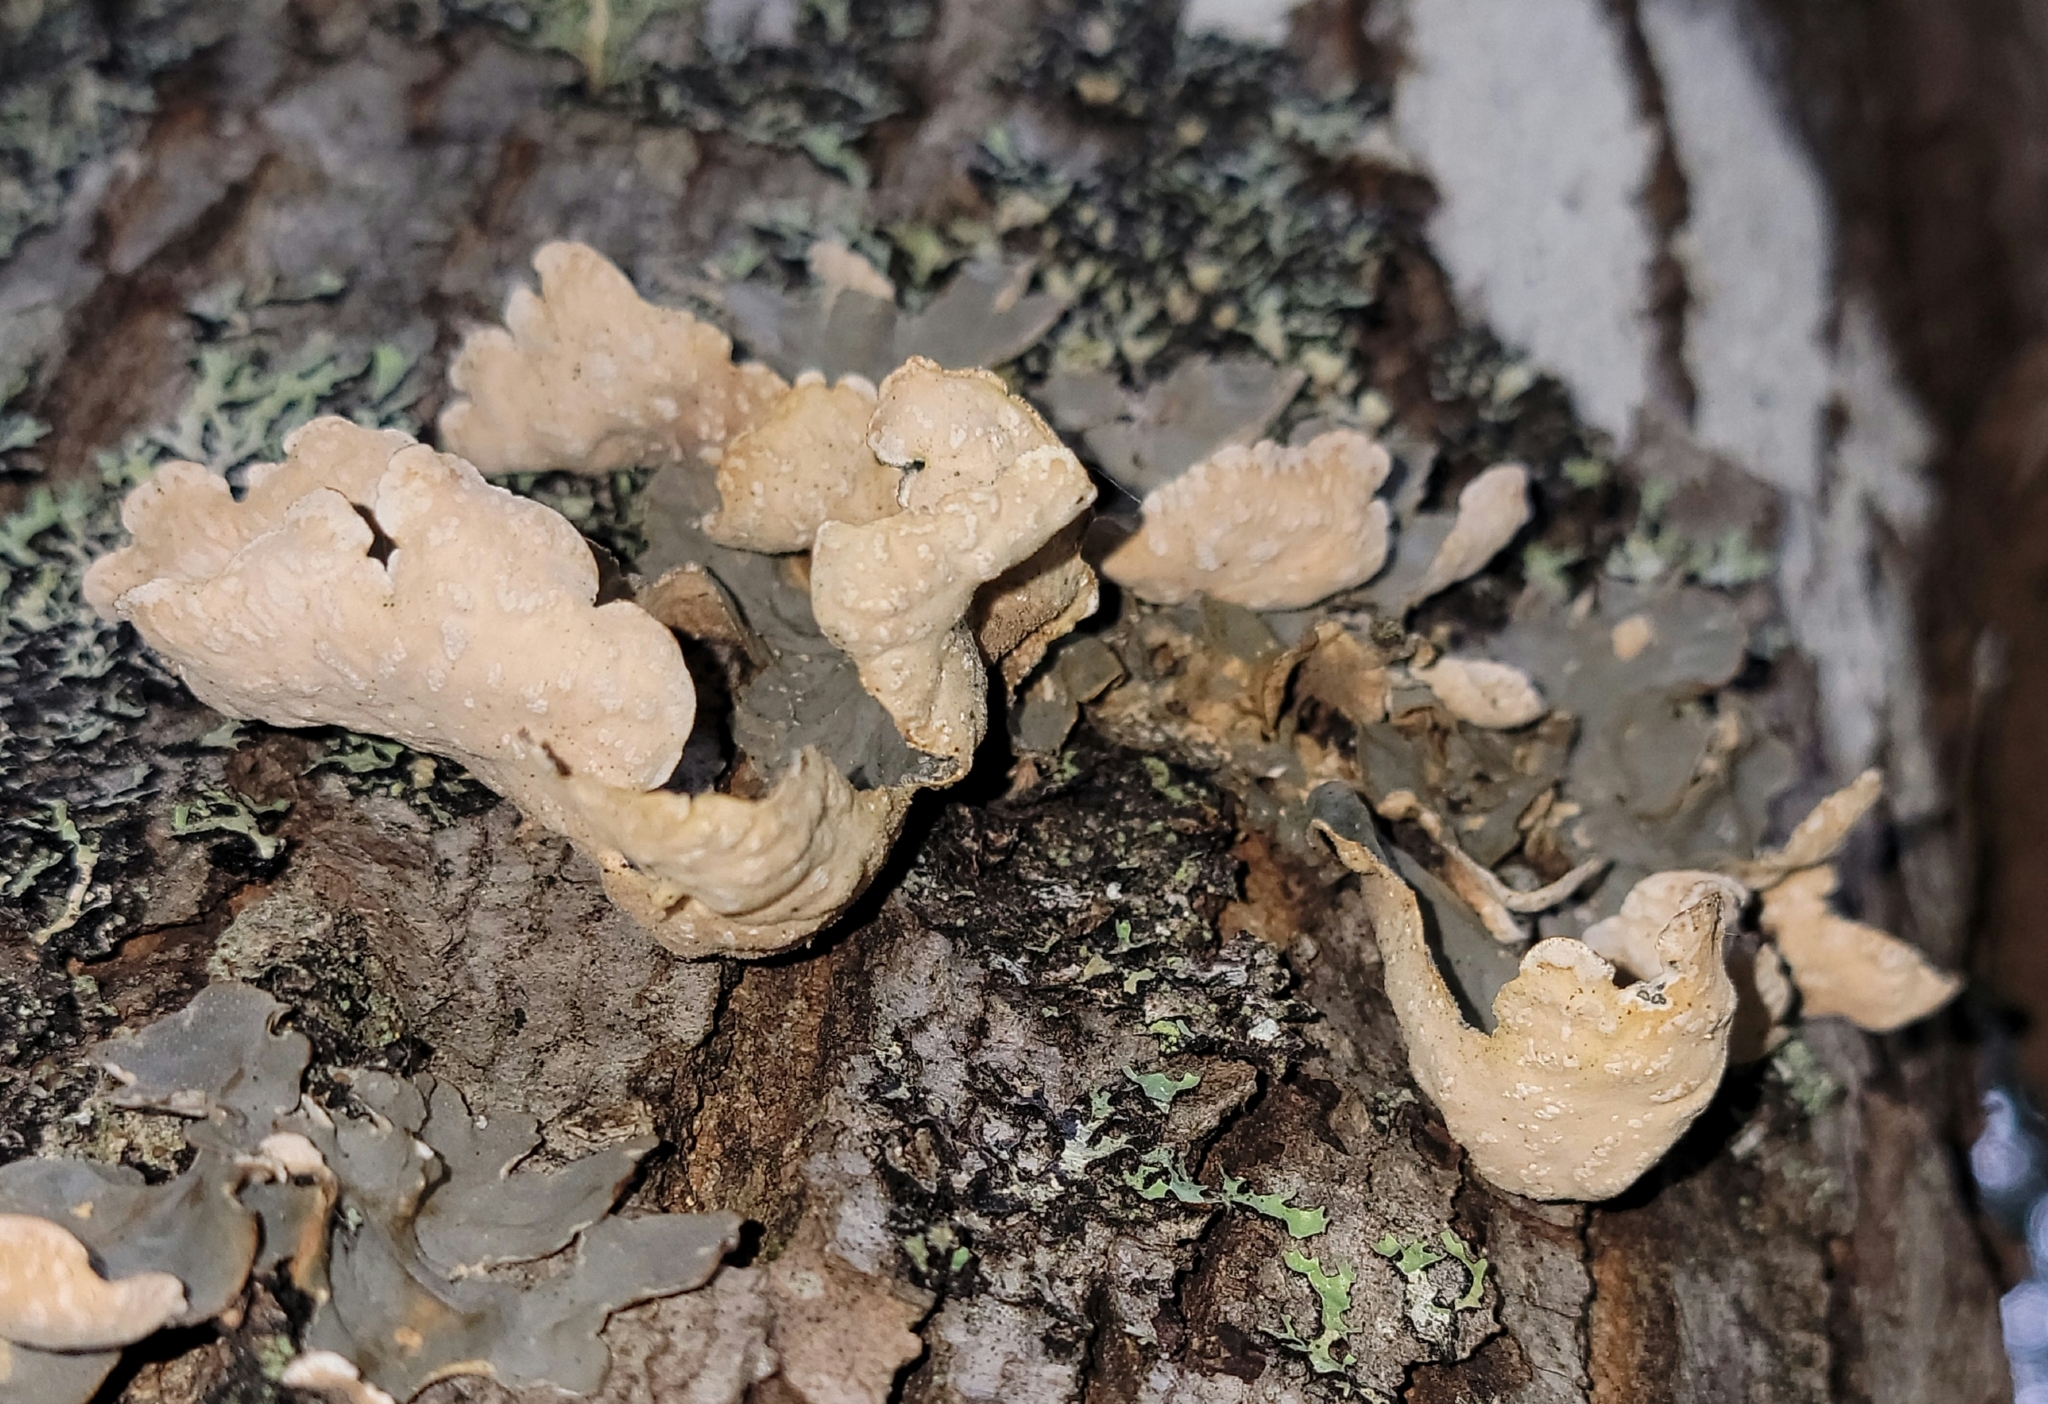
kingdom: Fungi
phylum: Ascomycota
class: Lecanoromycetes
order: Peltigerales
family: Lobariaceae
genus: Lobarina
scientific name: Lobarina scrobiculata
